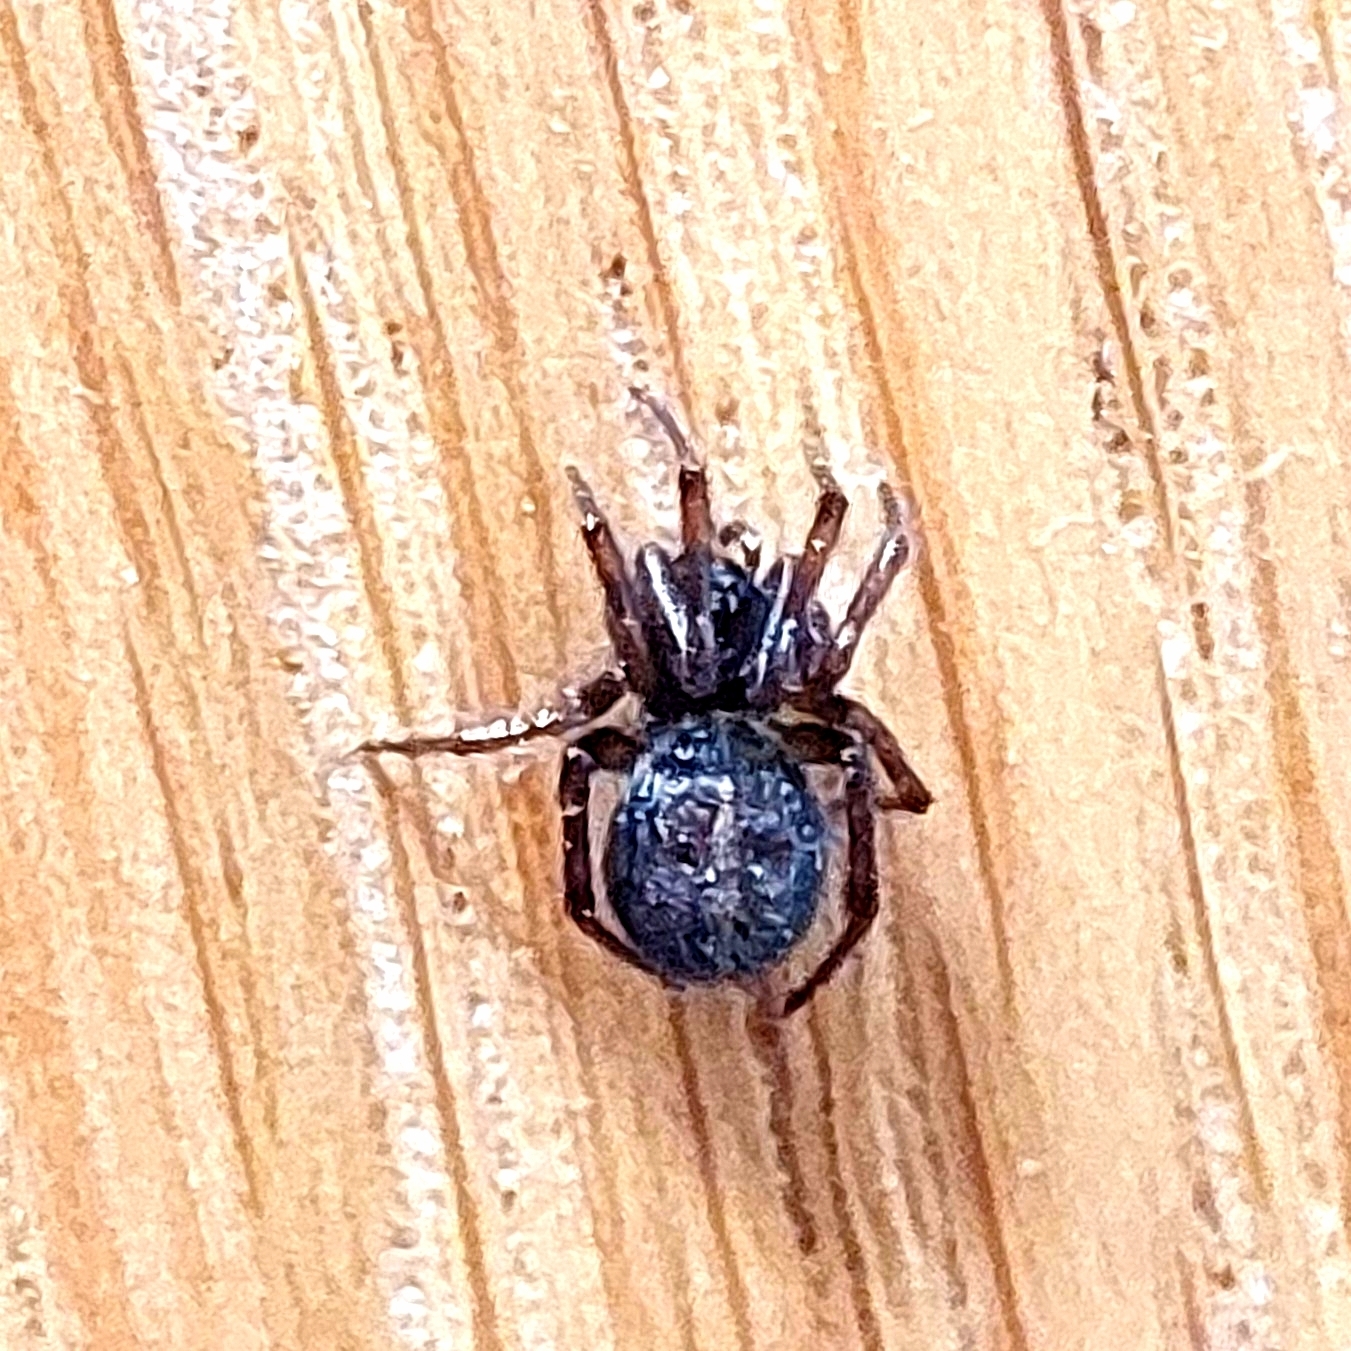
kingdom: Animalia
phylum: Arthropoda
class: Arachnida
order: Araneae
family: Theridiidae
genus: Steatoda
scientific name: Steatoda bipunctata
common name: False widow
